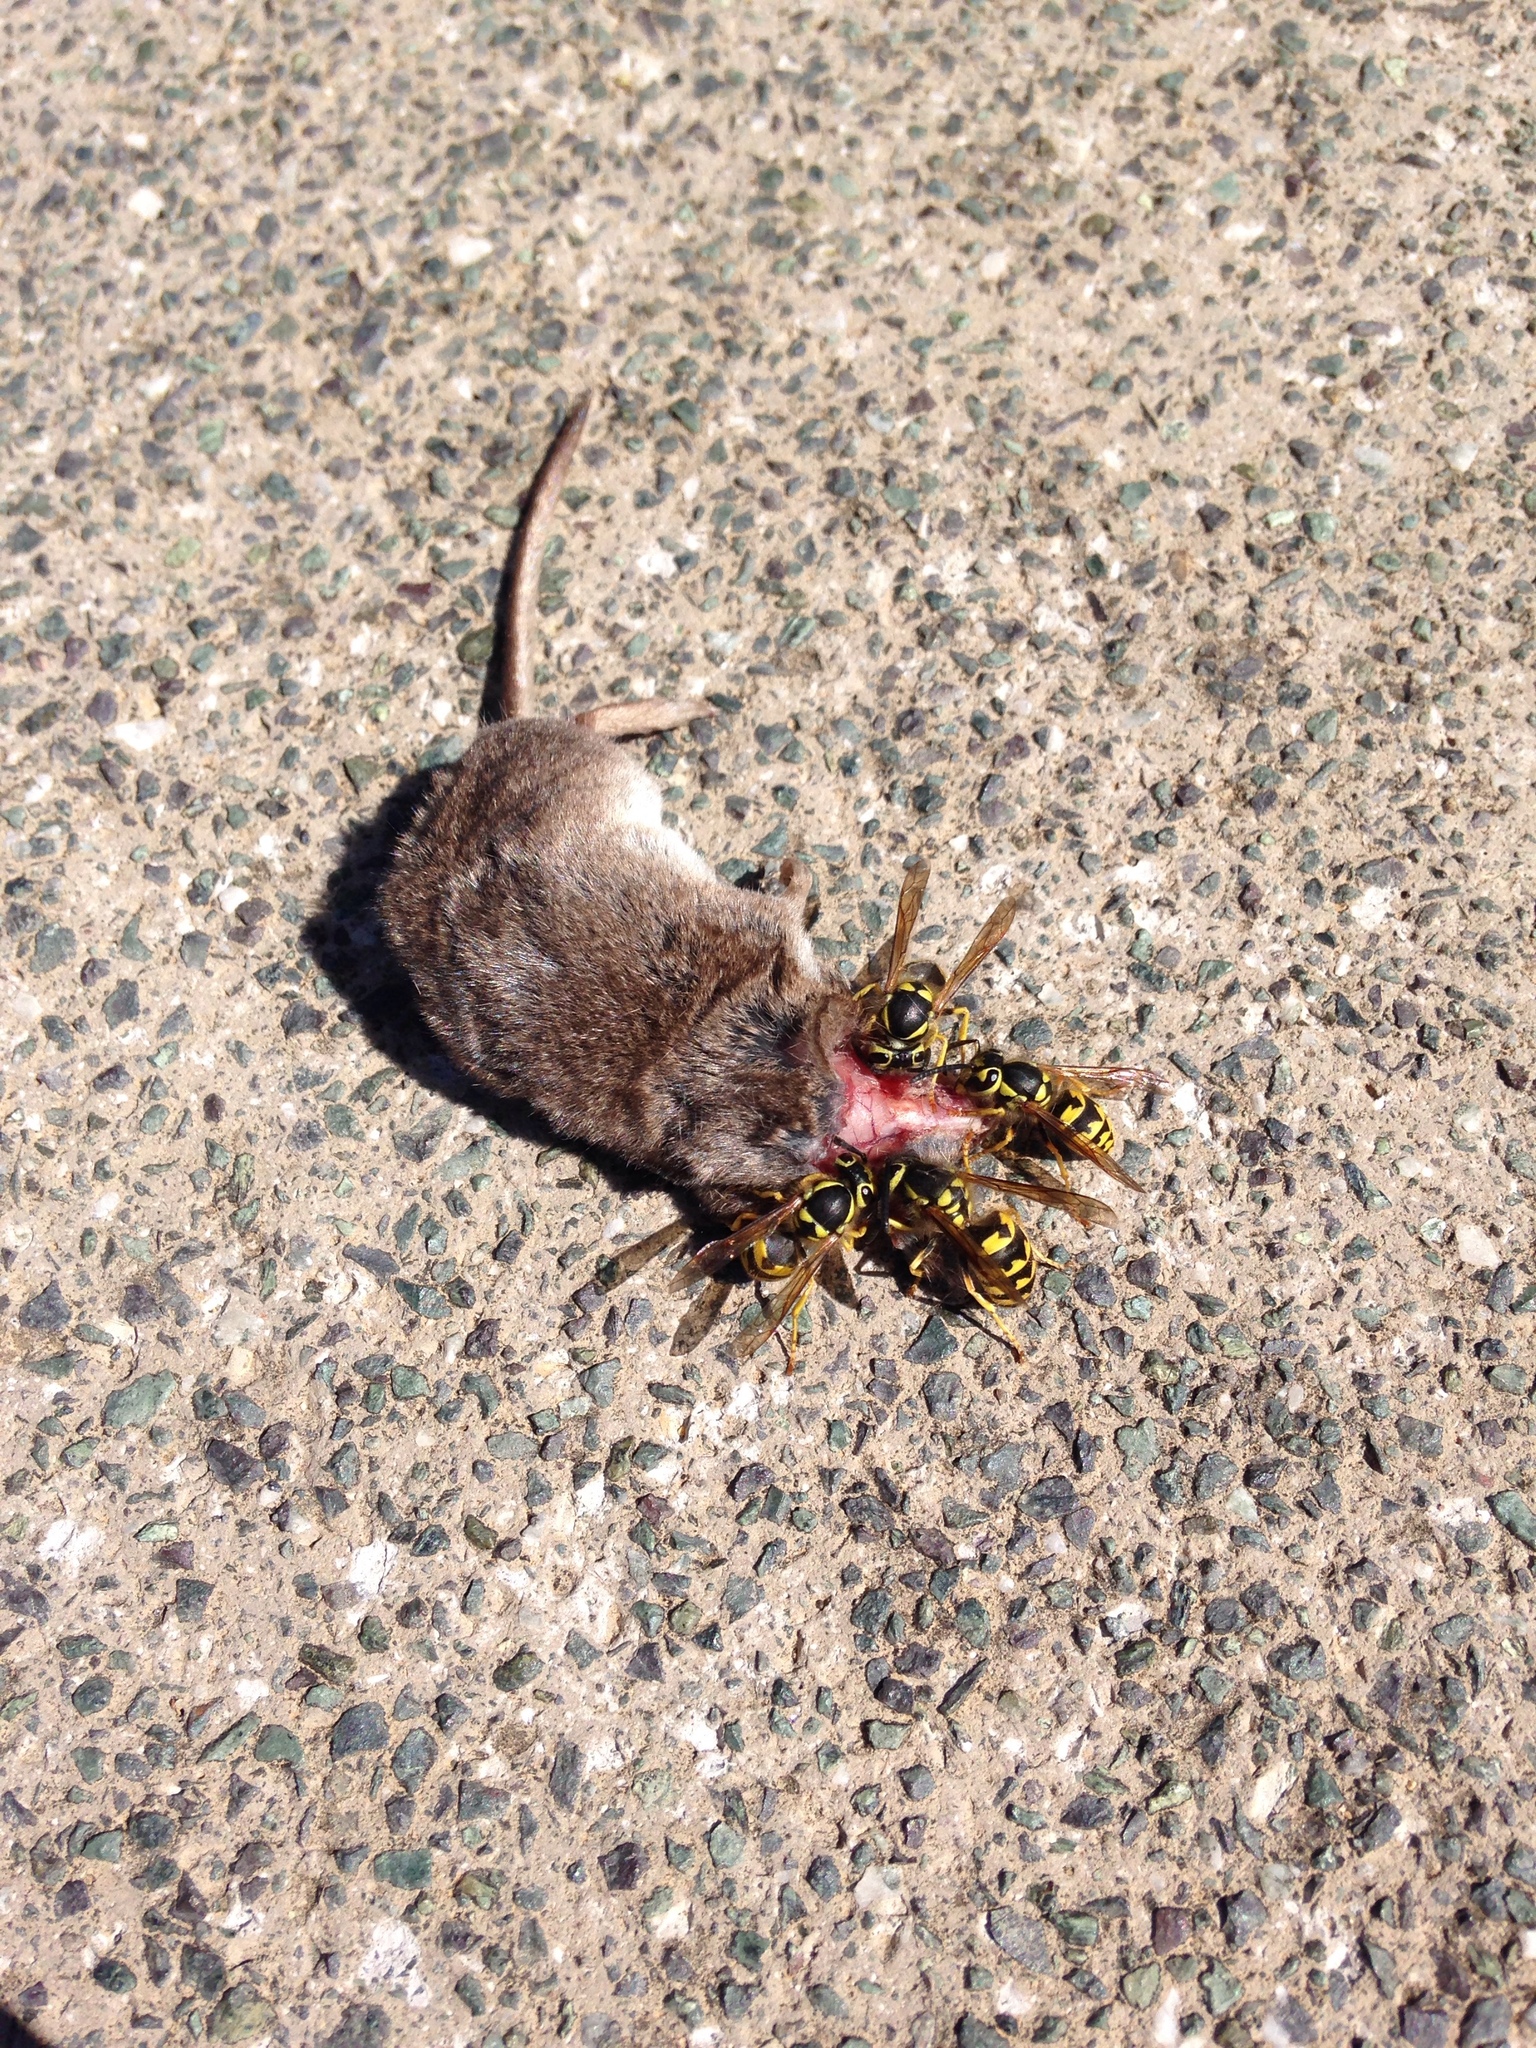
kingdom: Animalia
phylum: Arthropoda
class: Insecta
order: Hymenoptera
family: Eumenidae
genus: Polistes
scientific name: Polistes dominula
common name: Paper wasp
